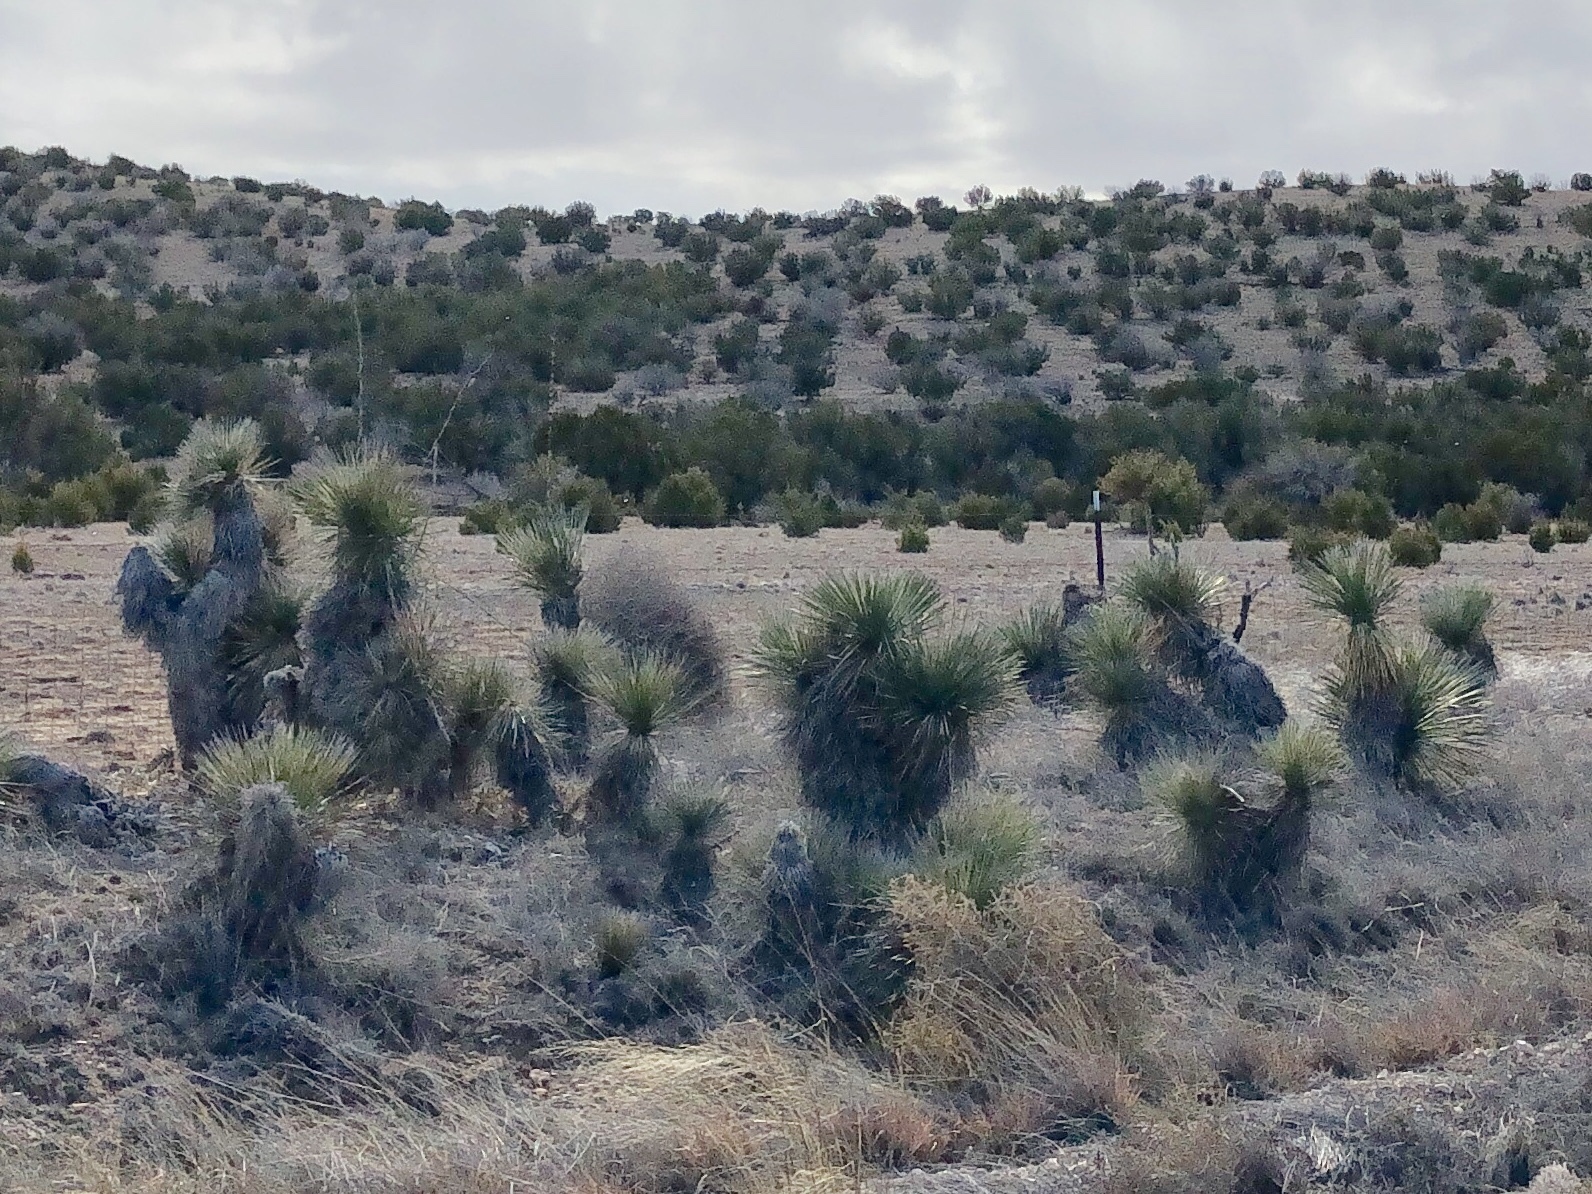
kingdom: Plantae
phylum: Tracheophyta
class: Liliopsida
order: Asparagales
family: Asparagaceae
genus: Yucca
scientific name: Yucca elata
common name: Palmella
